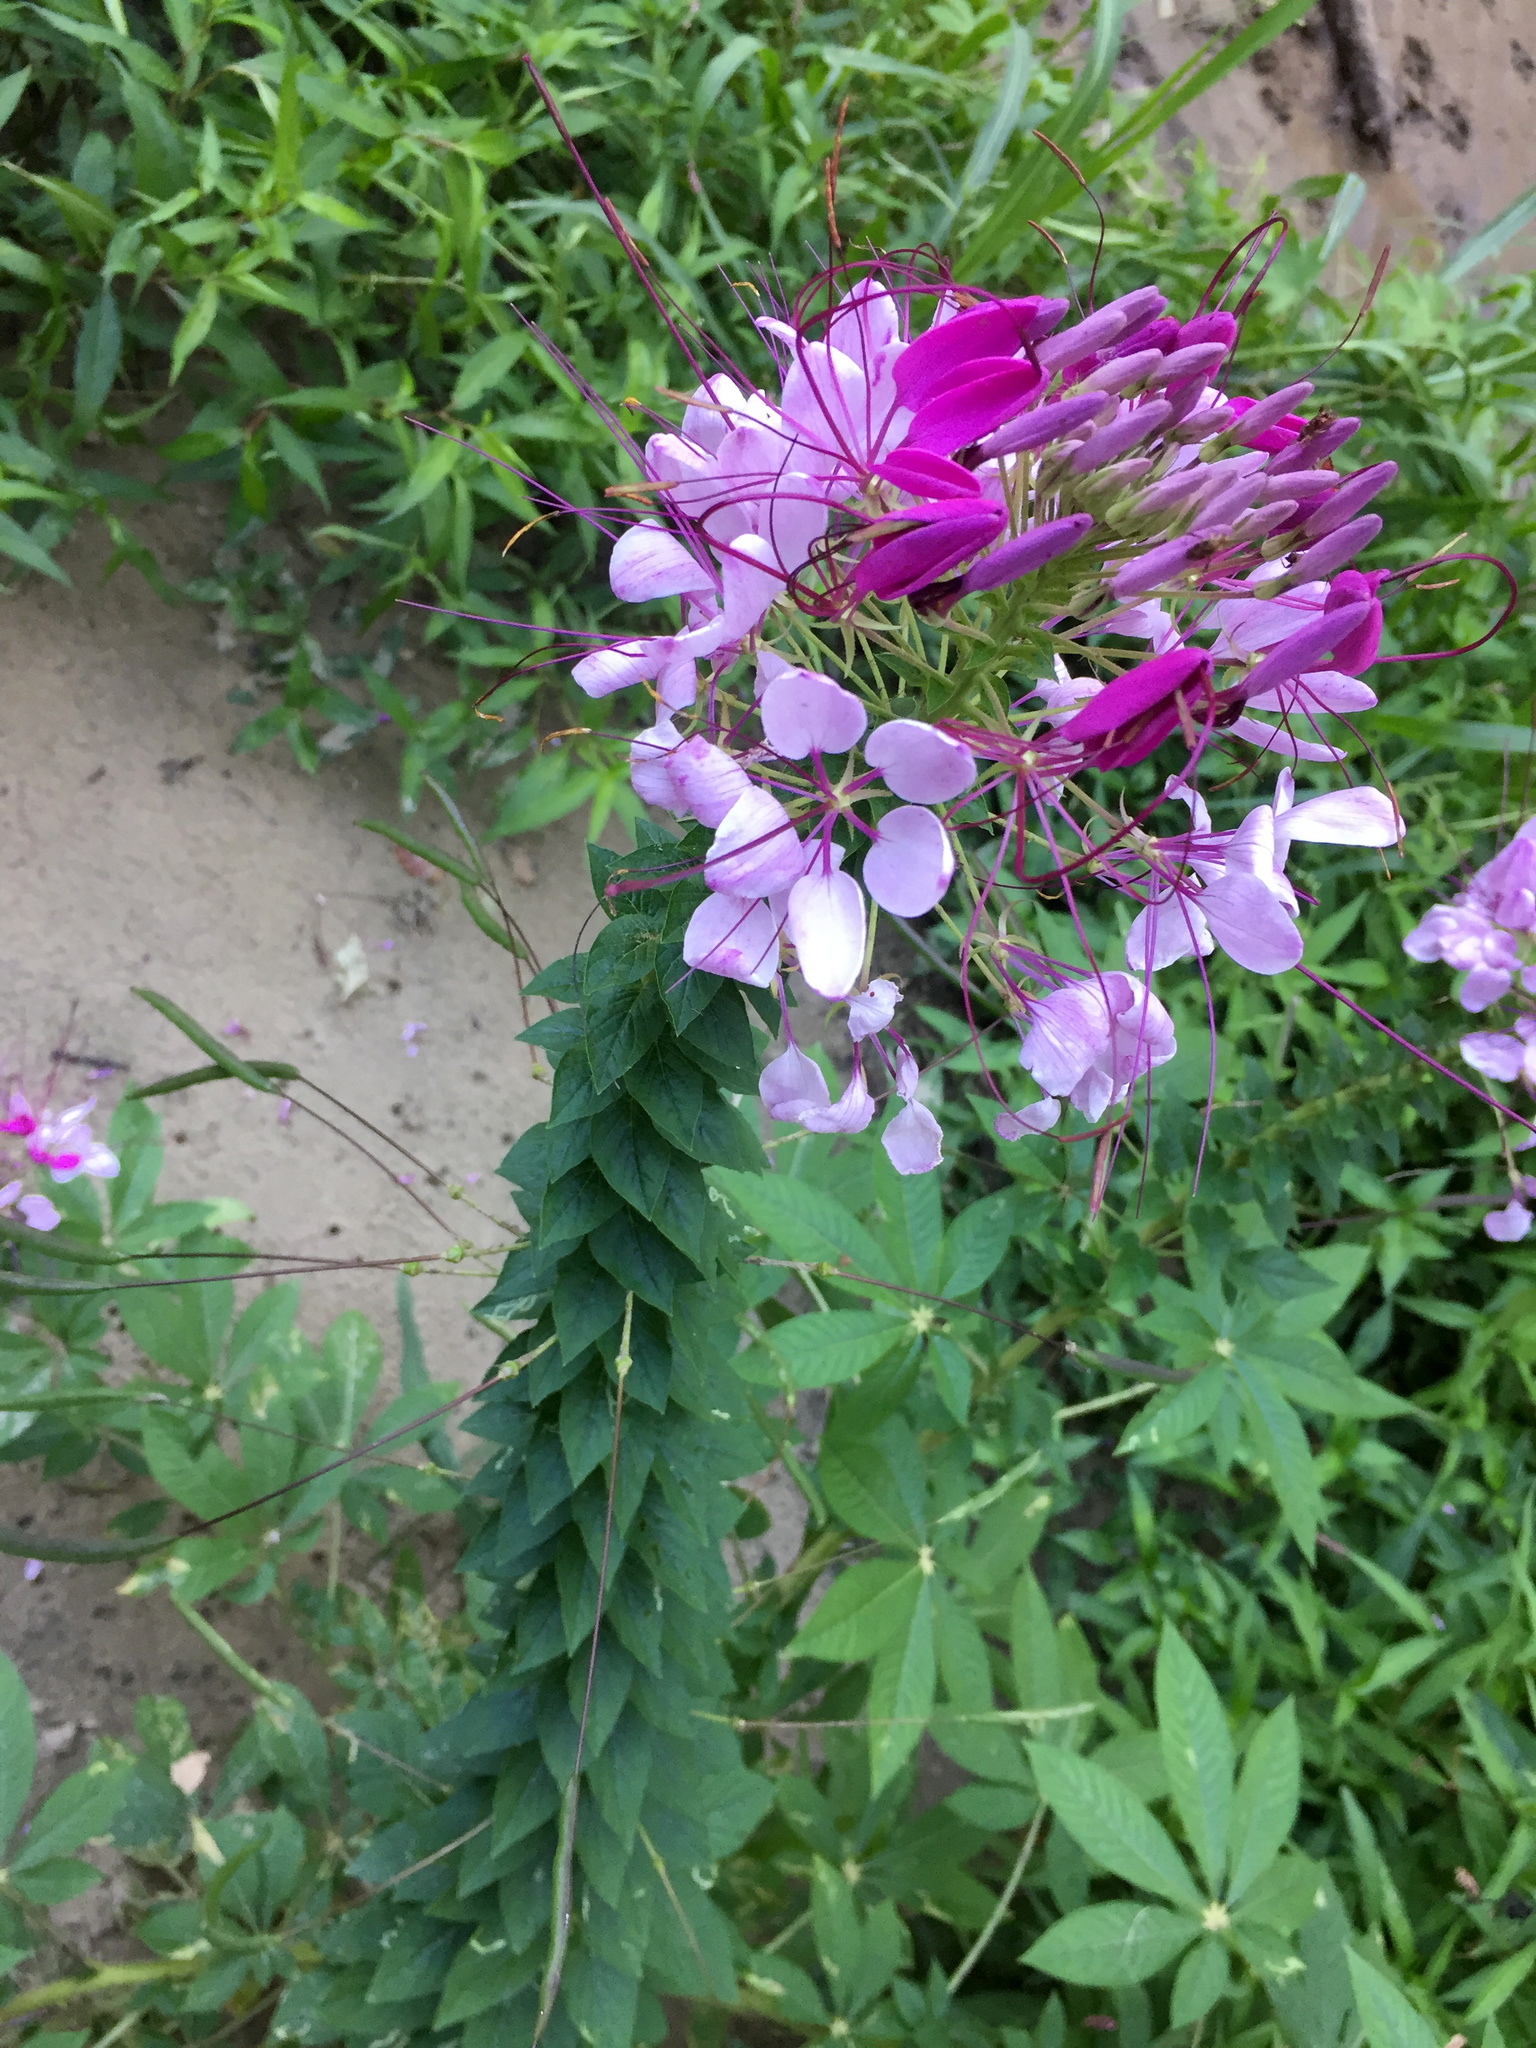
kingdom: Plantae
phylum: Tracheophyta
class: Magnoliopsida
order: Brassicales
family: Cleomaceae
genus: Tarenaya
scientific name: Tarenaya houtteana
